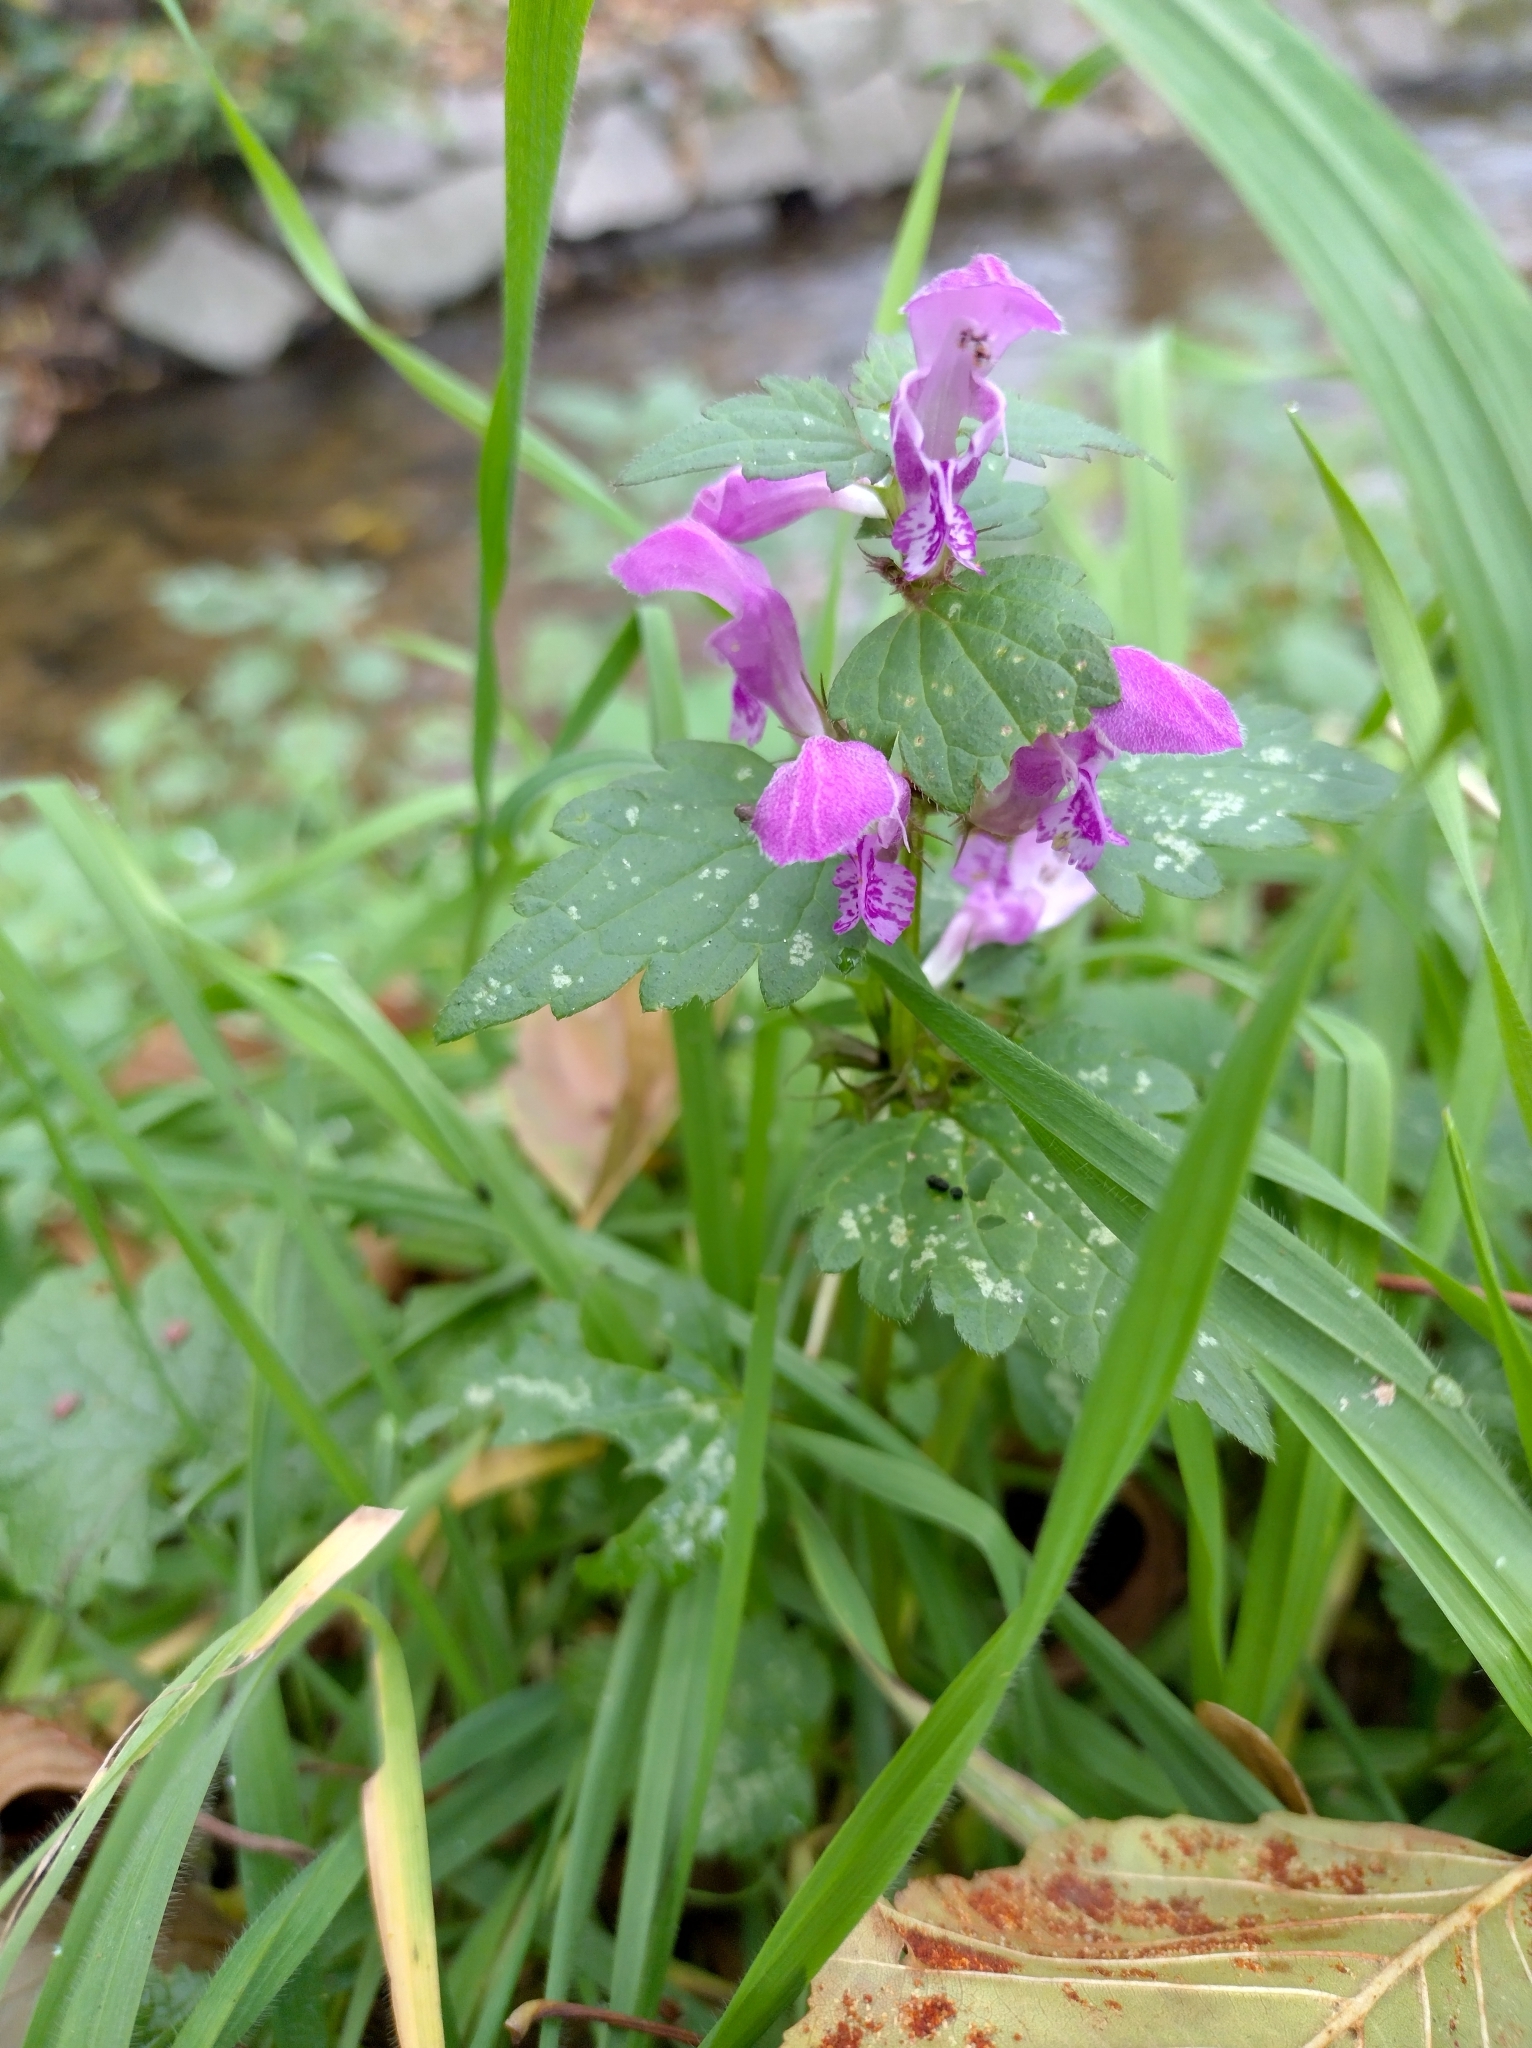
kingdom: Plantae
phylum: Tracheophyta
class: Magnoliopsida
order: Lamiales
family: Lamiaceae
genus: Lamium
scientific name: Lamium maculatum
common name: Spotted dead-nettle
